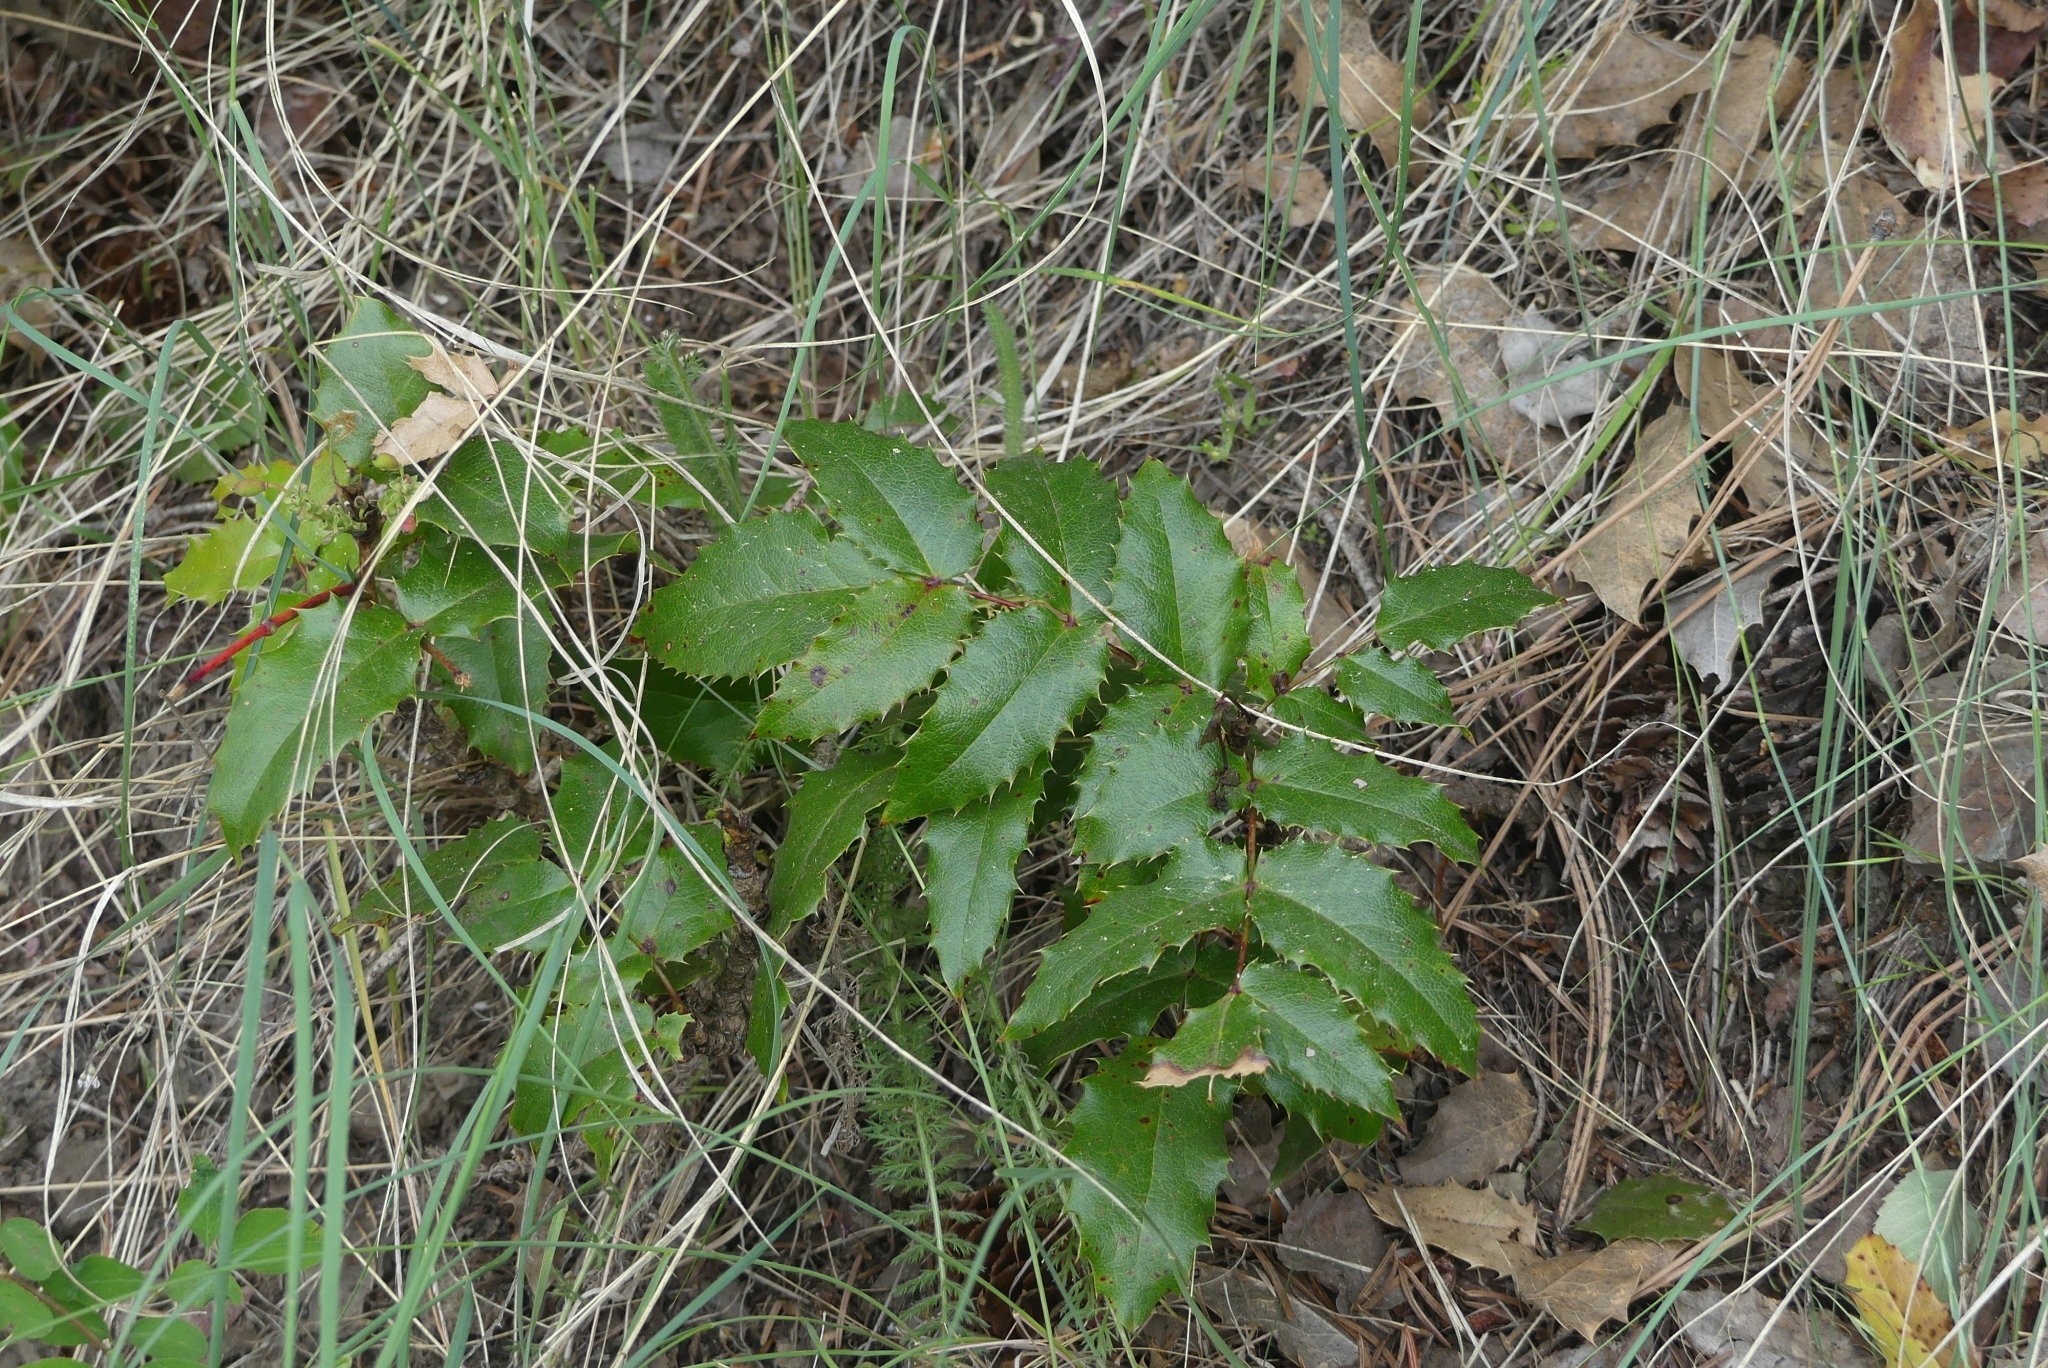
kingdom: Plantae
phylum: Tracheophyta
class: Magnoliopsida
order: Ranunculales
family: Berberidaceae
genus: Mahonia
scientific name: Mahonia aquifolium
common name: Oregon-grape
